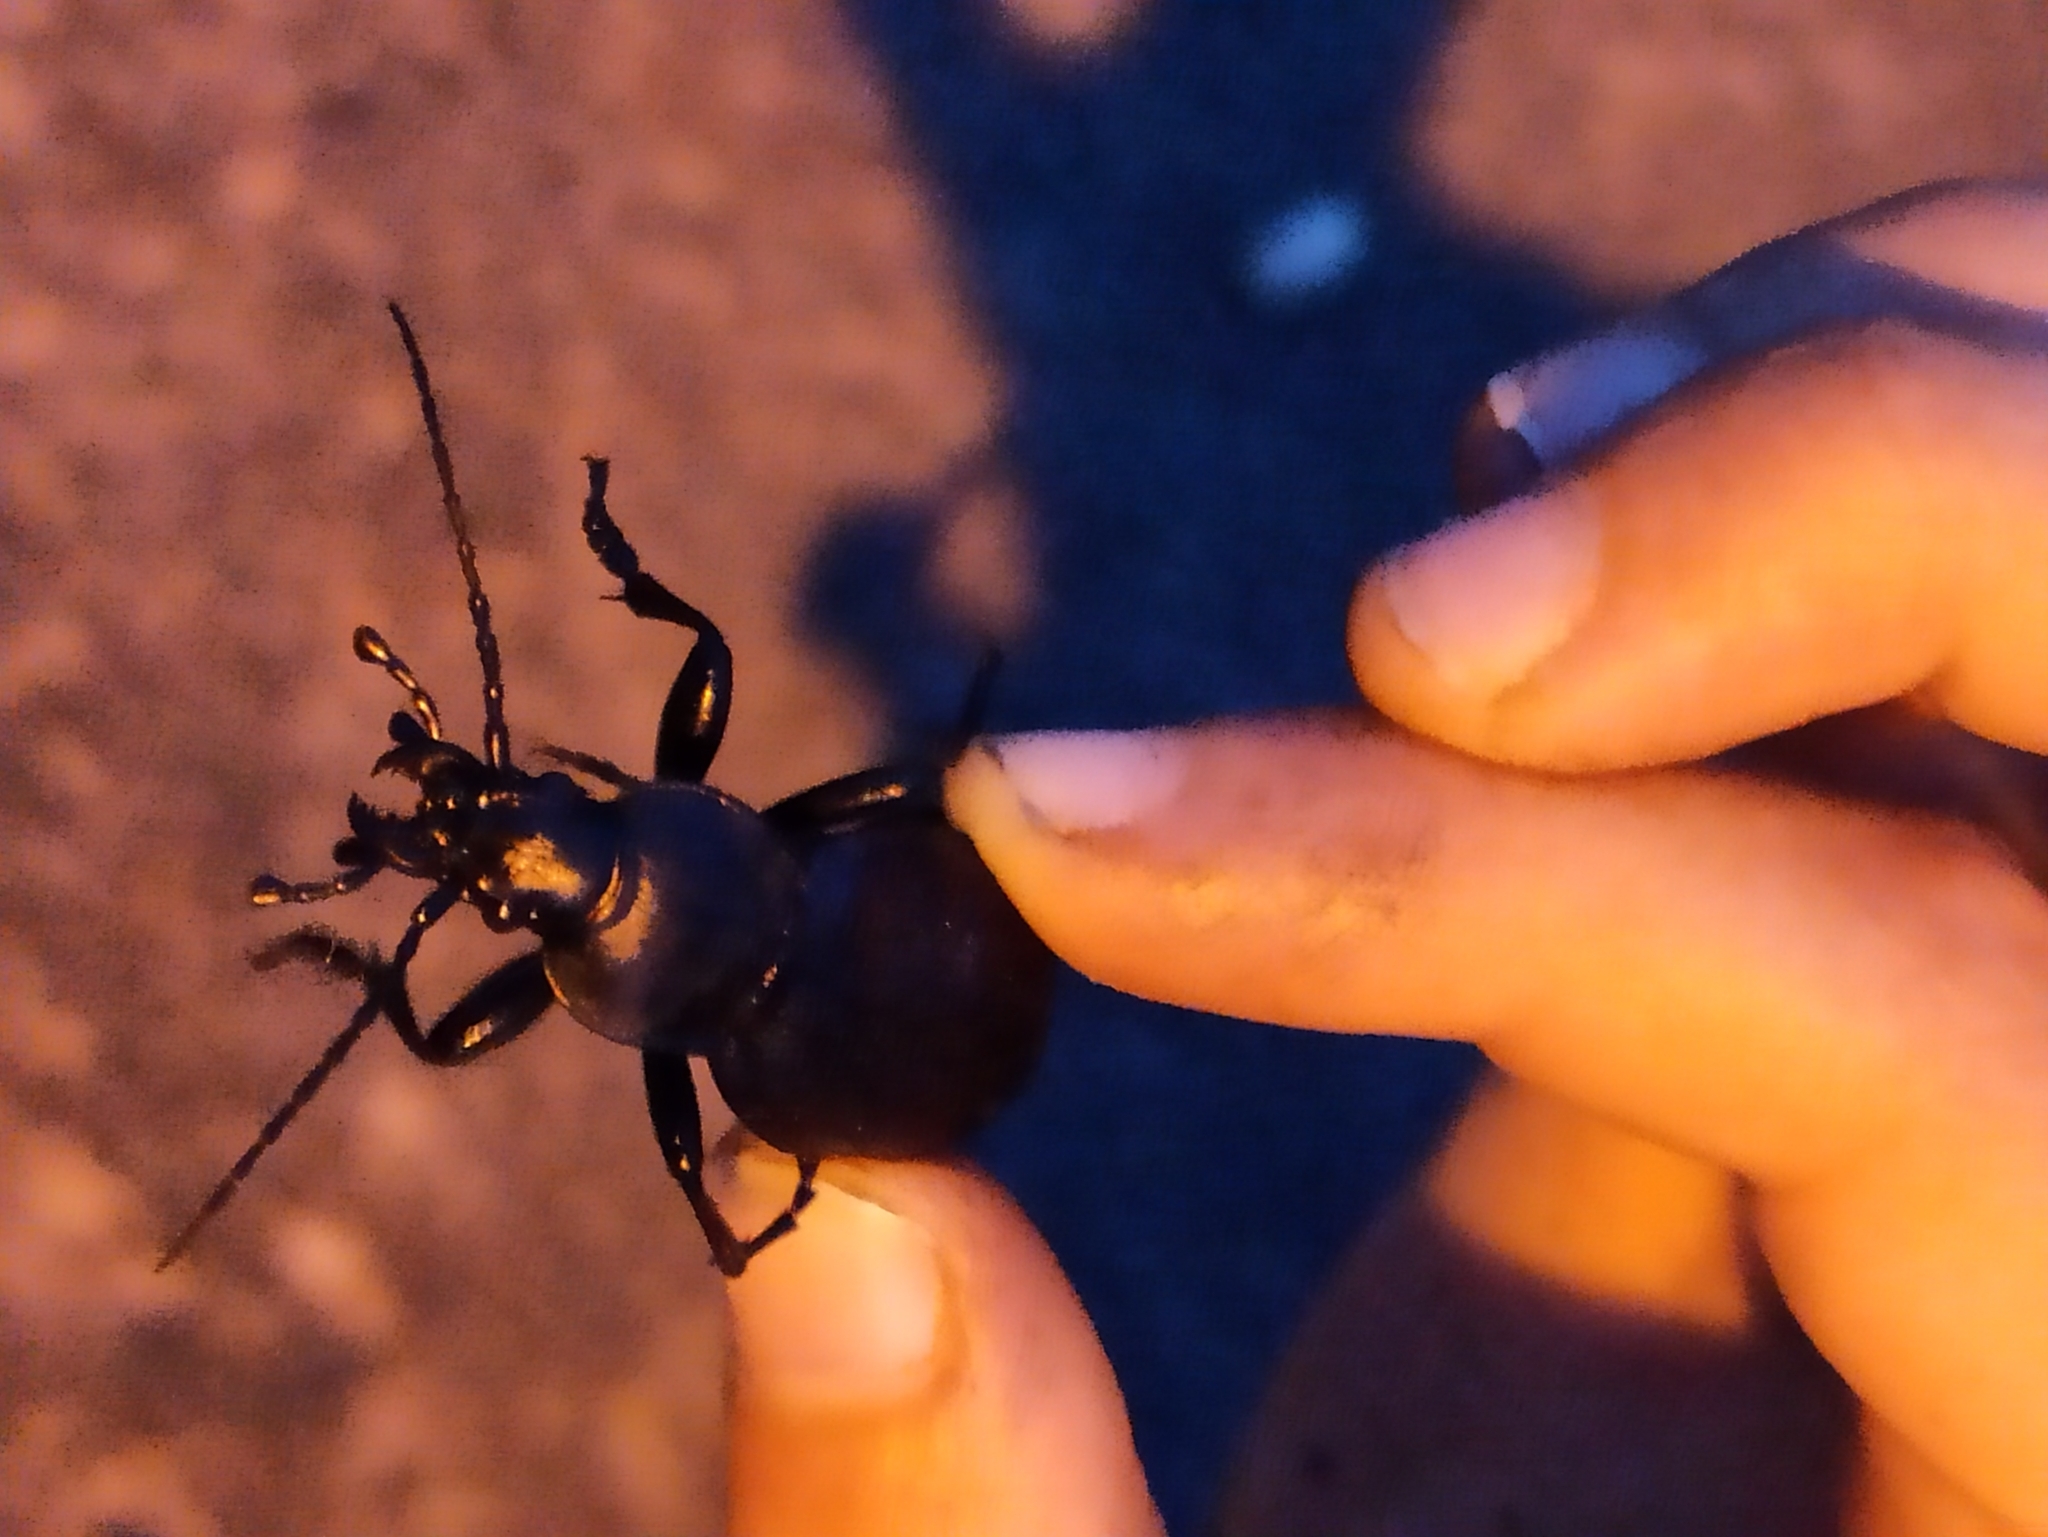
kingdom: Animalia
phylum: Arthropoda
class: Insecta
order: Coleoptera
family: Carabidae
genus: Carabus
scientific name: Carabus coriaceus
